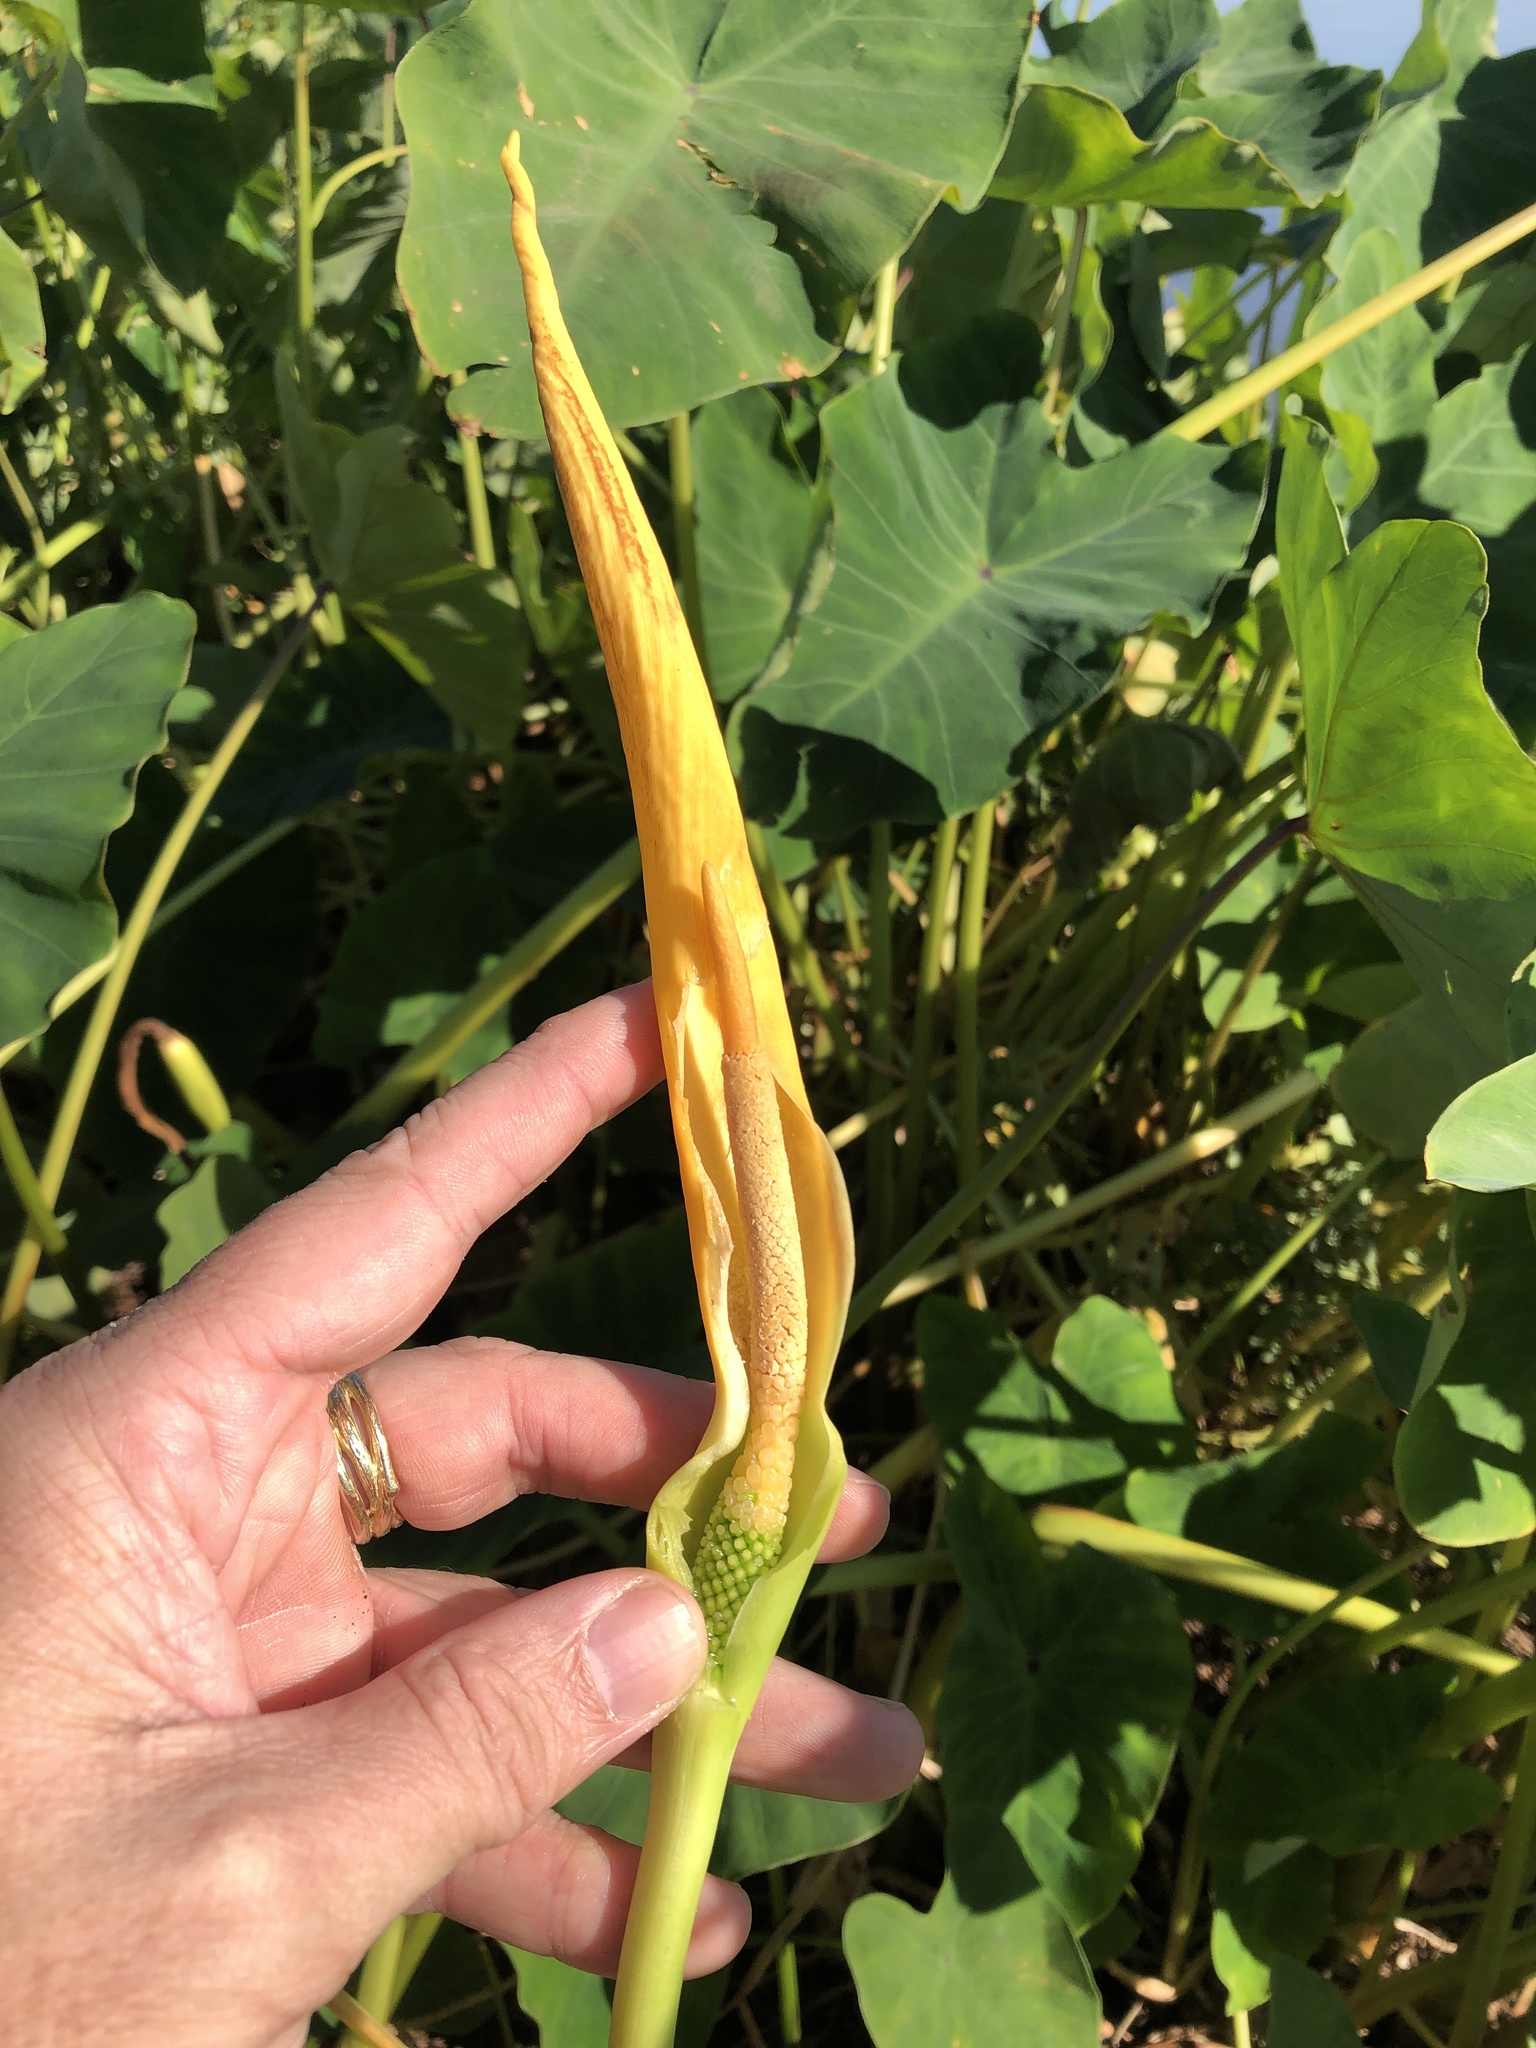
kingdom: Plantae
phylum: Tracheophyta
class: Liliopsida
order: Alismatales
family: Araceae
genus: Colocasia
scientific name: Colocasia esculenta
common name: Taro
